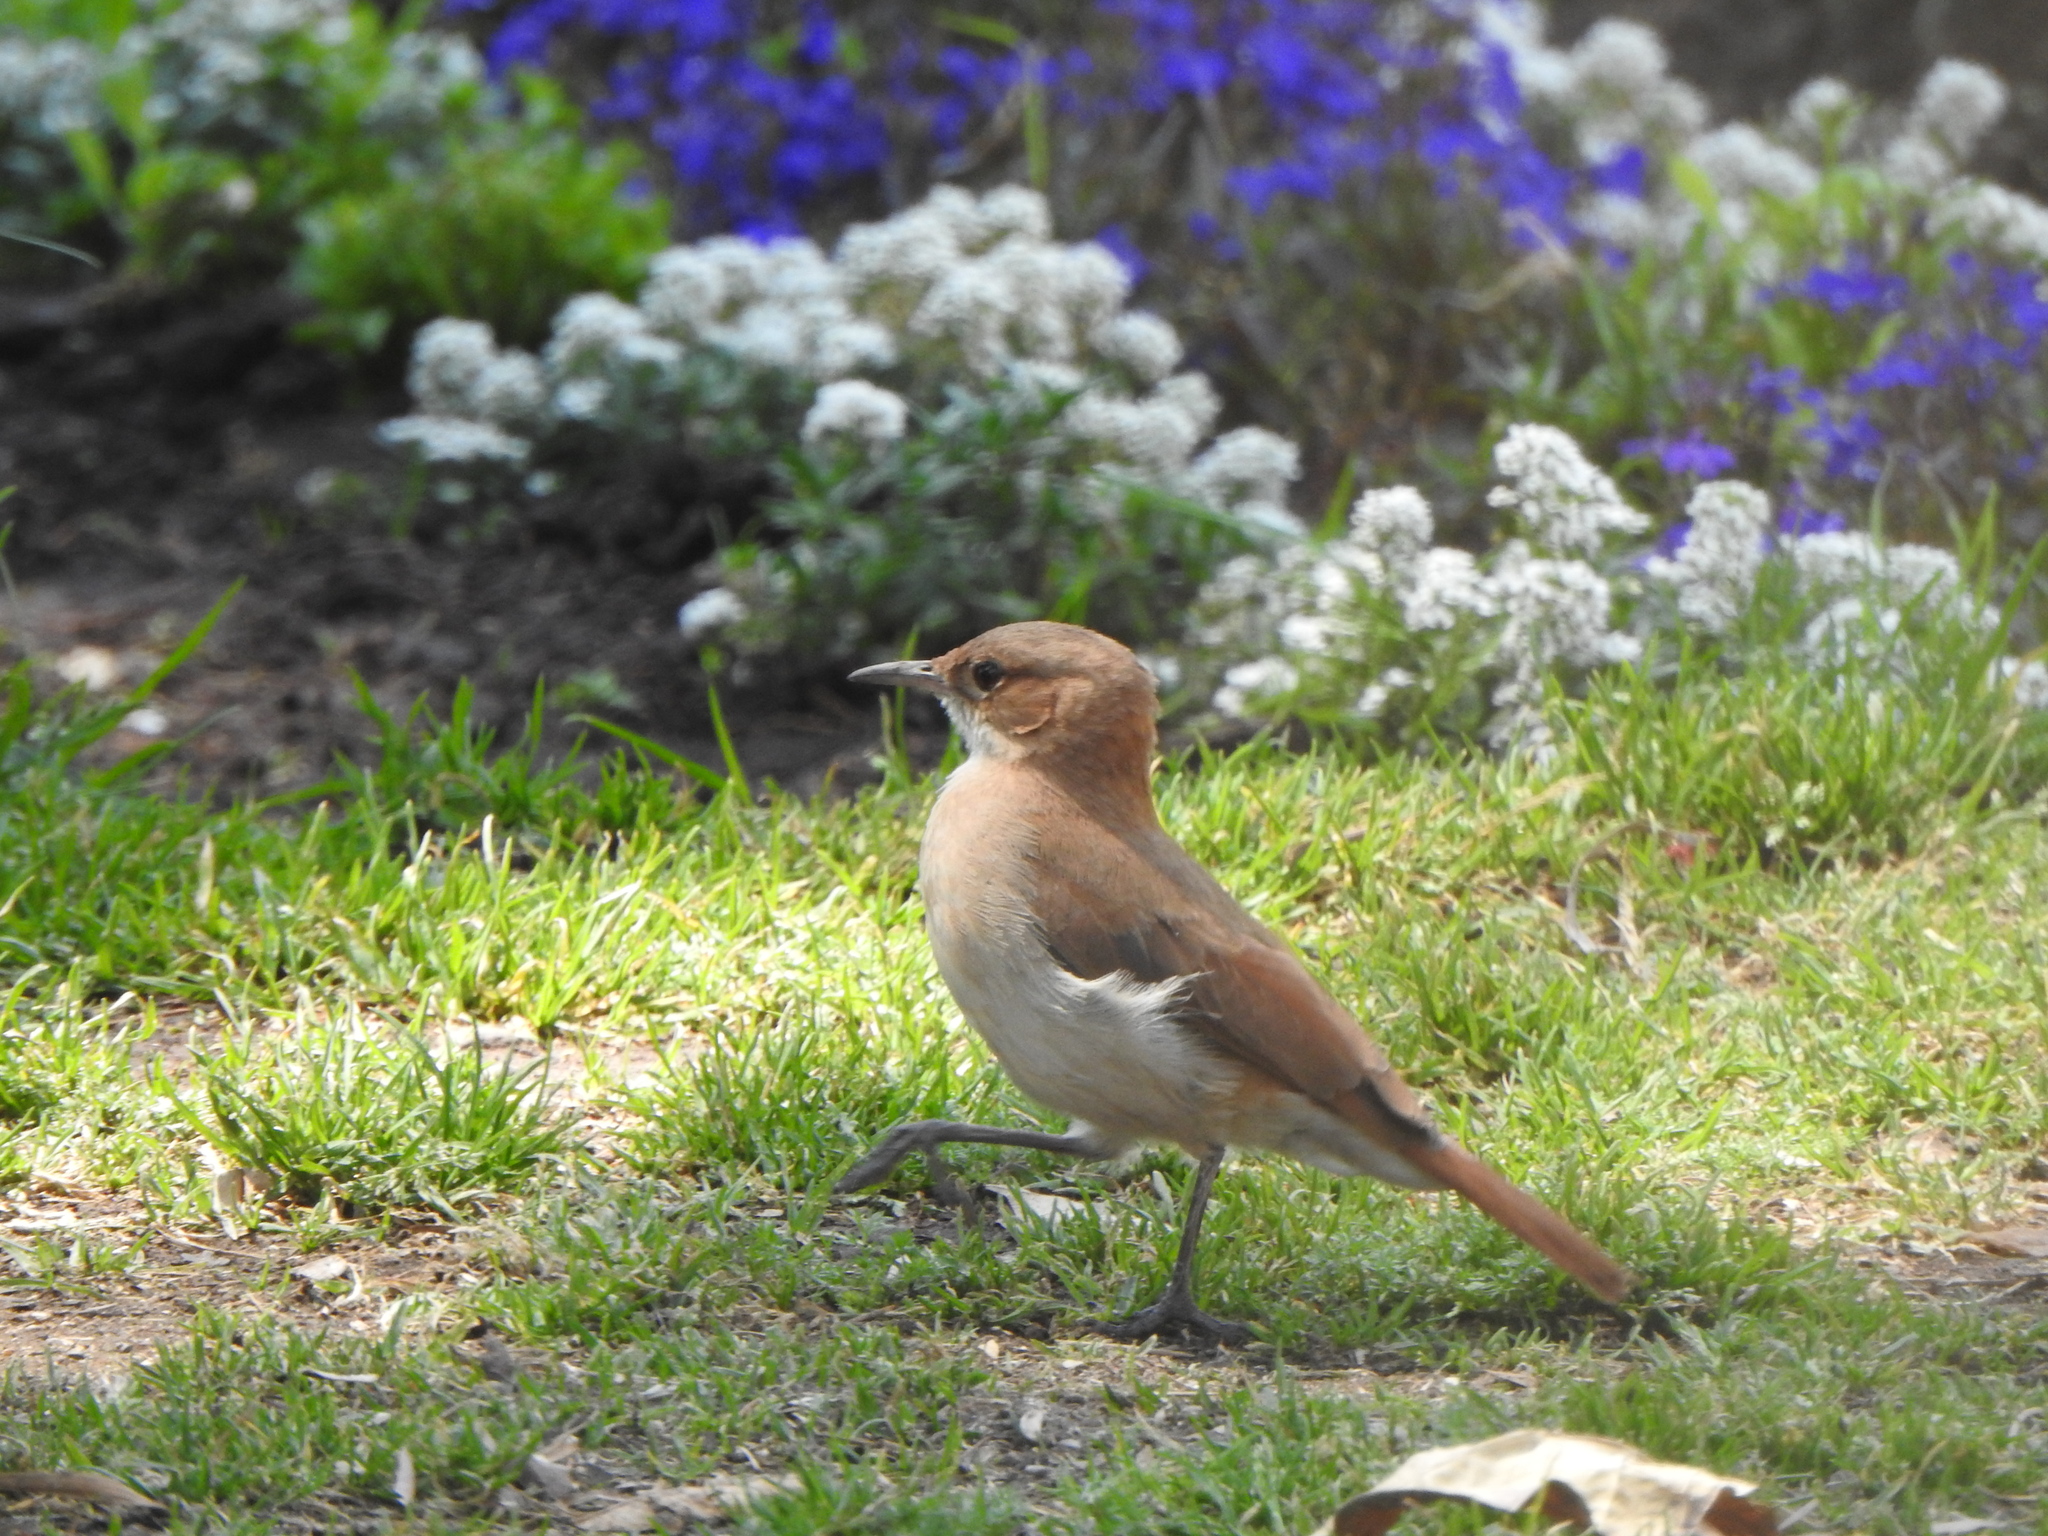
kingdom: Animalia
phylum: Chordata
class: Aves
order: Passeriformes
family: Furnariidae
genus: Furnarius
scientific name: Furnarius rufus
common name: Rufous hornero
